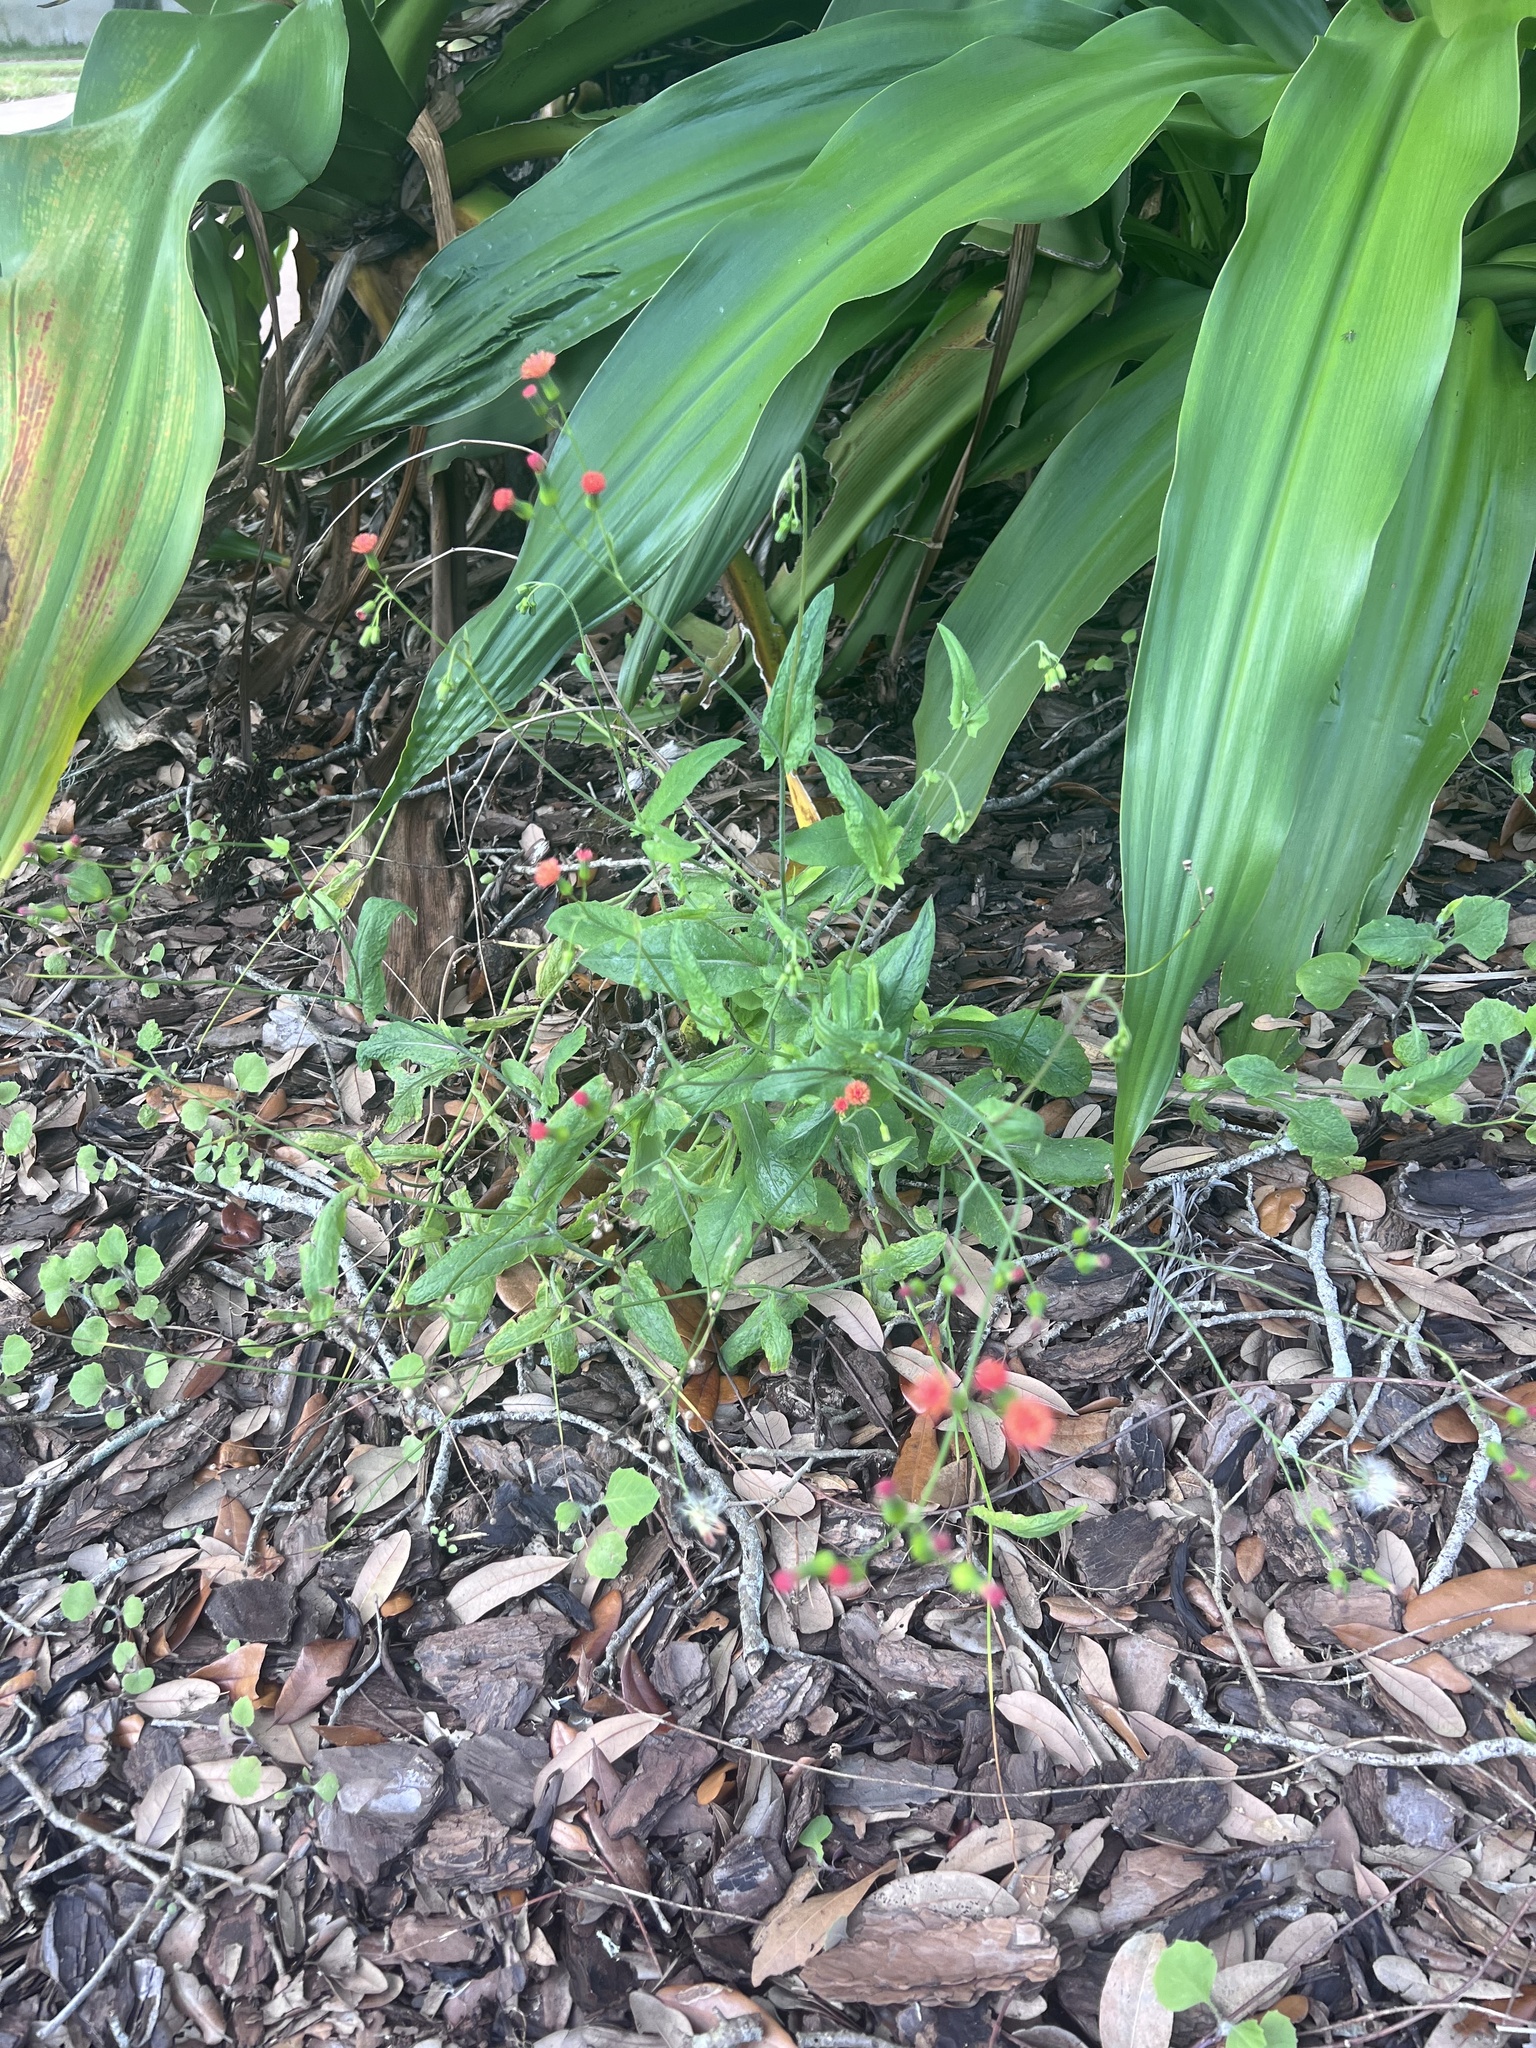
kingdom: Plantae
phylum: Tracheophyta
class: Magnoliopsida
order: Asterales
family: Asteraceae
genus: Emilia
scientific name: Emilia fosbergii
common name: Florida tasselflower
